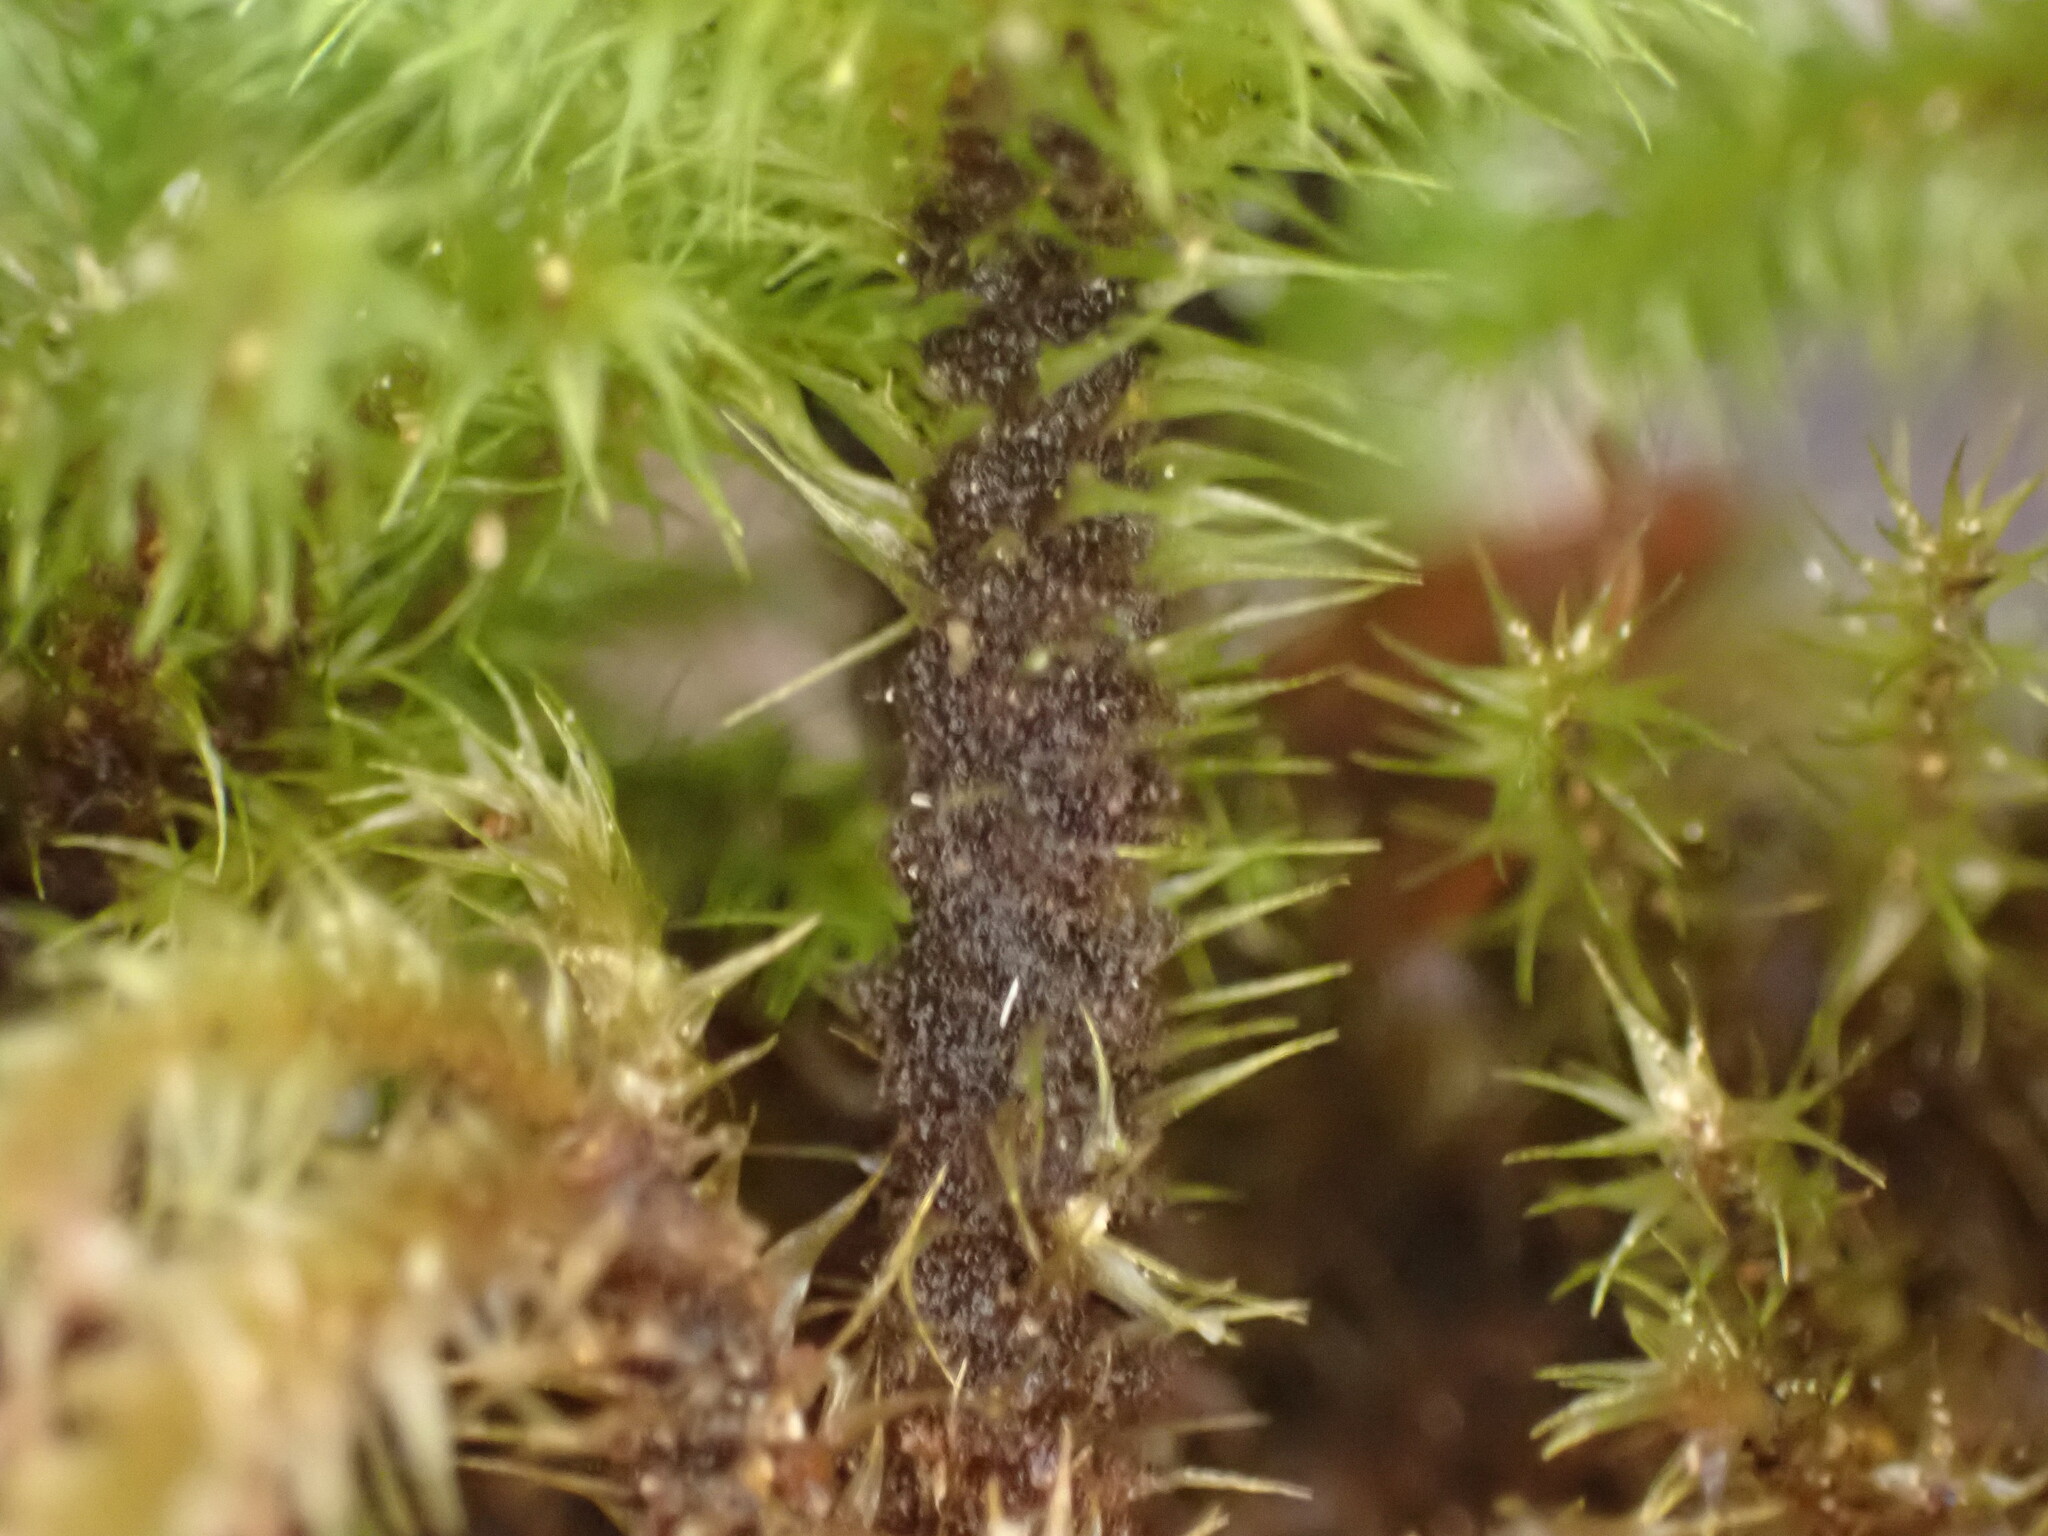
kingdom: Plantae
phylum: Bryophyta
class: Bryopsida
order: Hypnodendrales
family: Spiridentaceae
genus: Mniodendron
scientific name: Mniodendron colensoi
